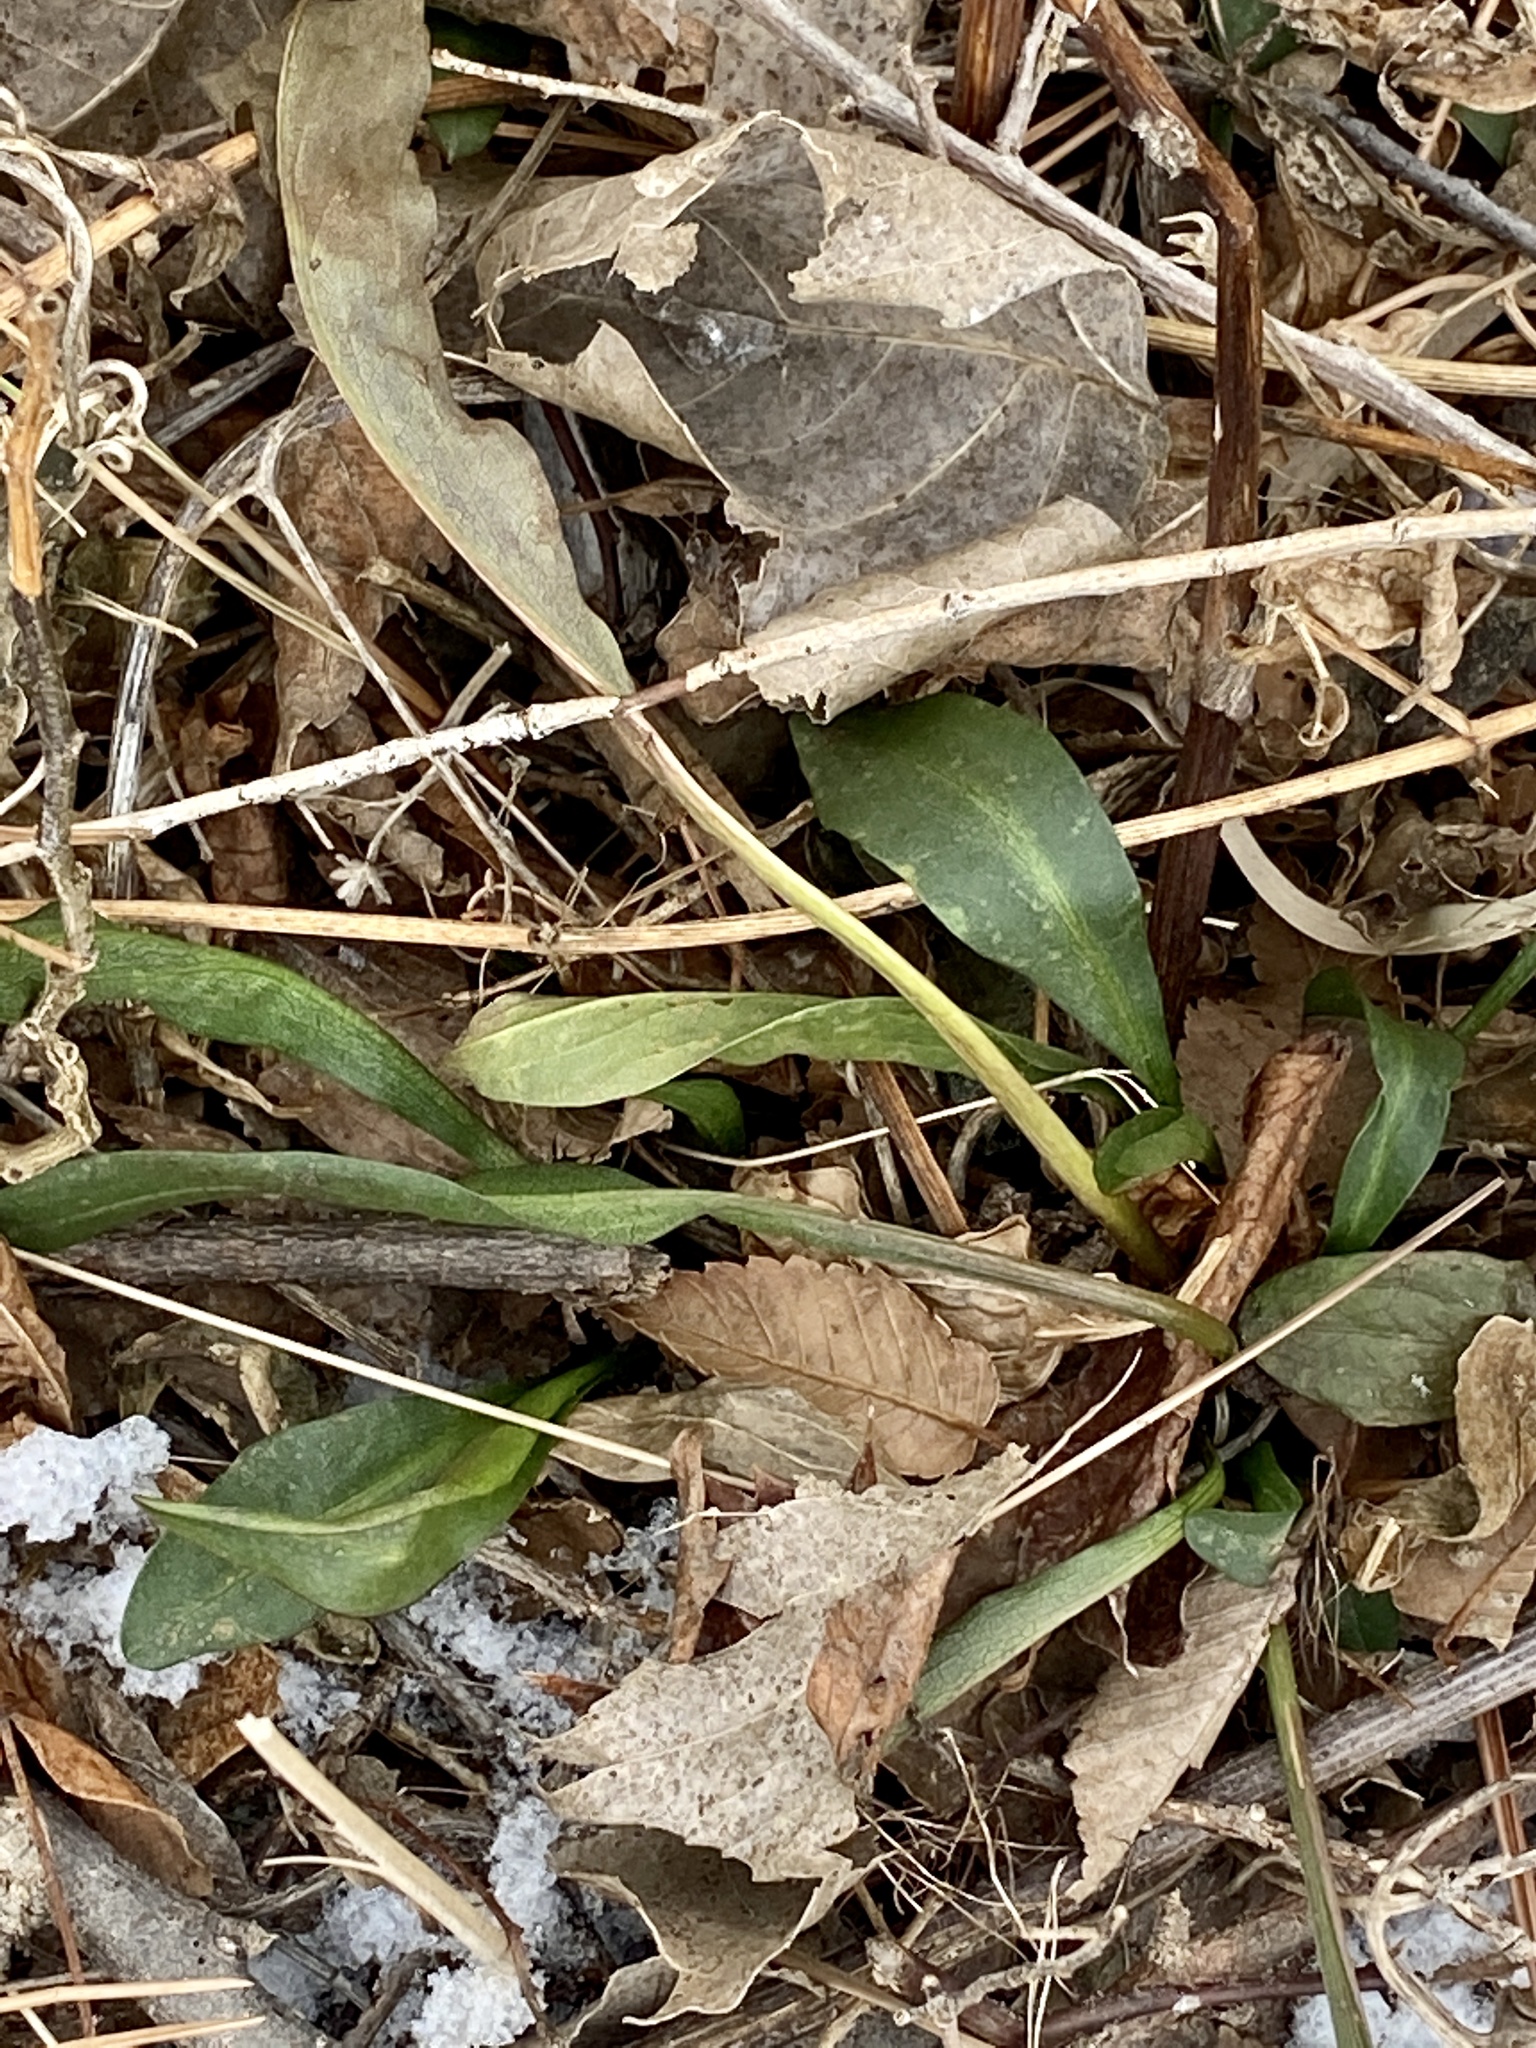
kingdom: Plantae
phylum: Tracheophyta
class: Magnoliopsida
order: Asterales
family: Asteraceae
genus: Solidago
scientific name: Solidago sempervirens
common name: Salt-marsh goldenrod
